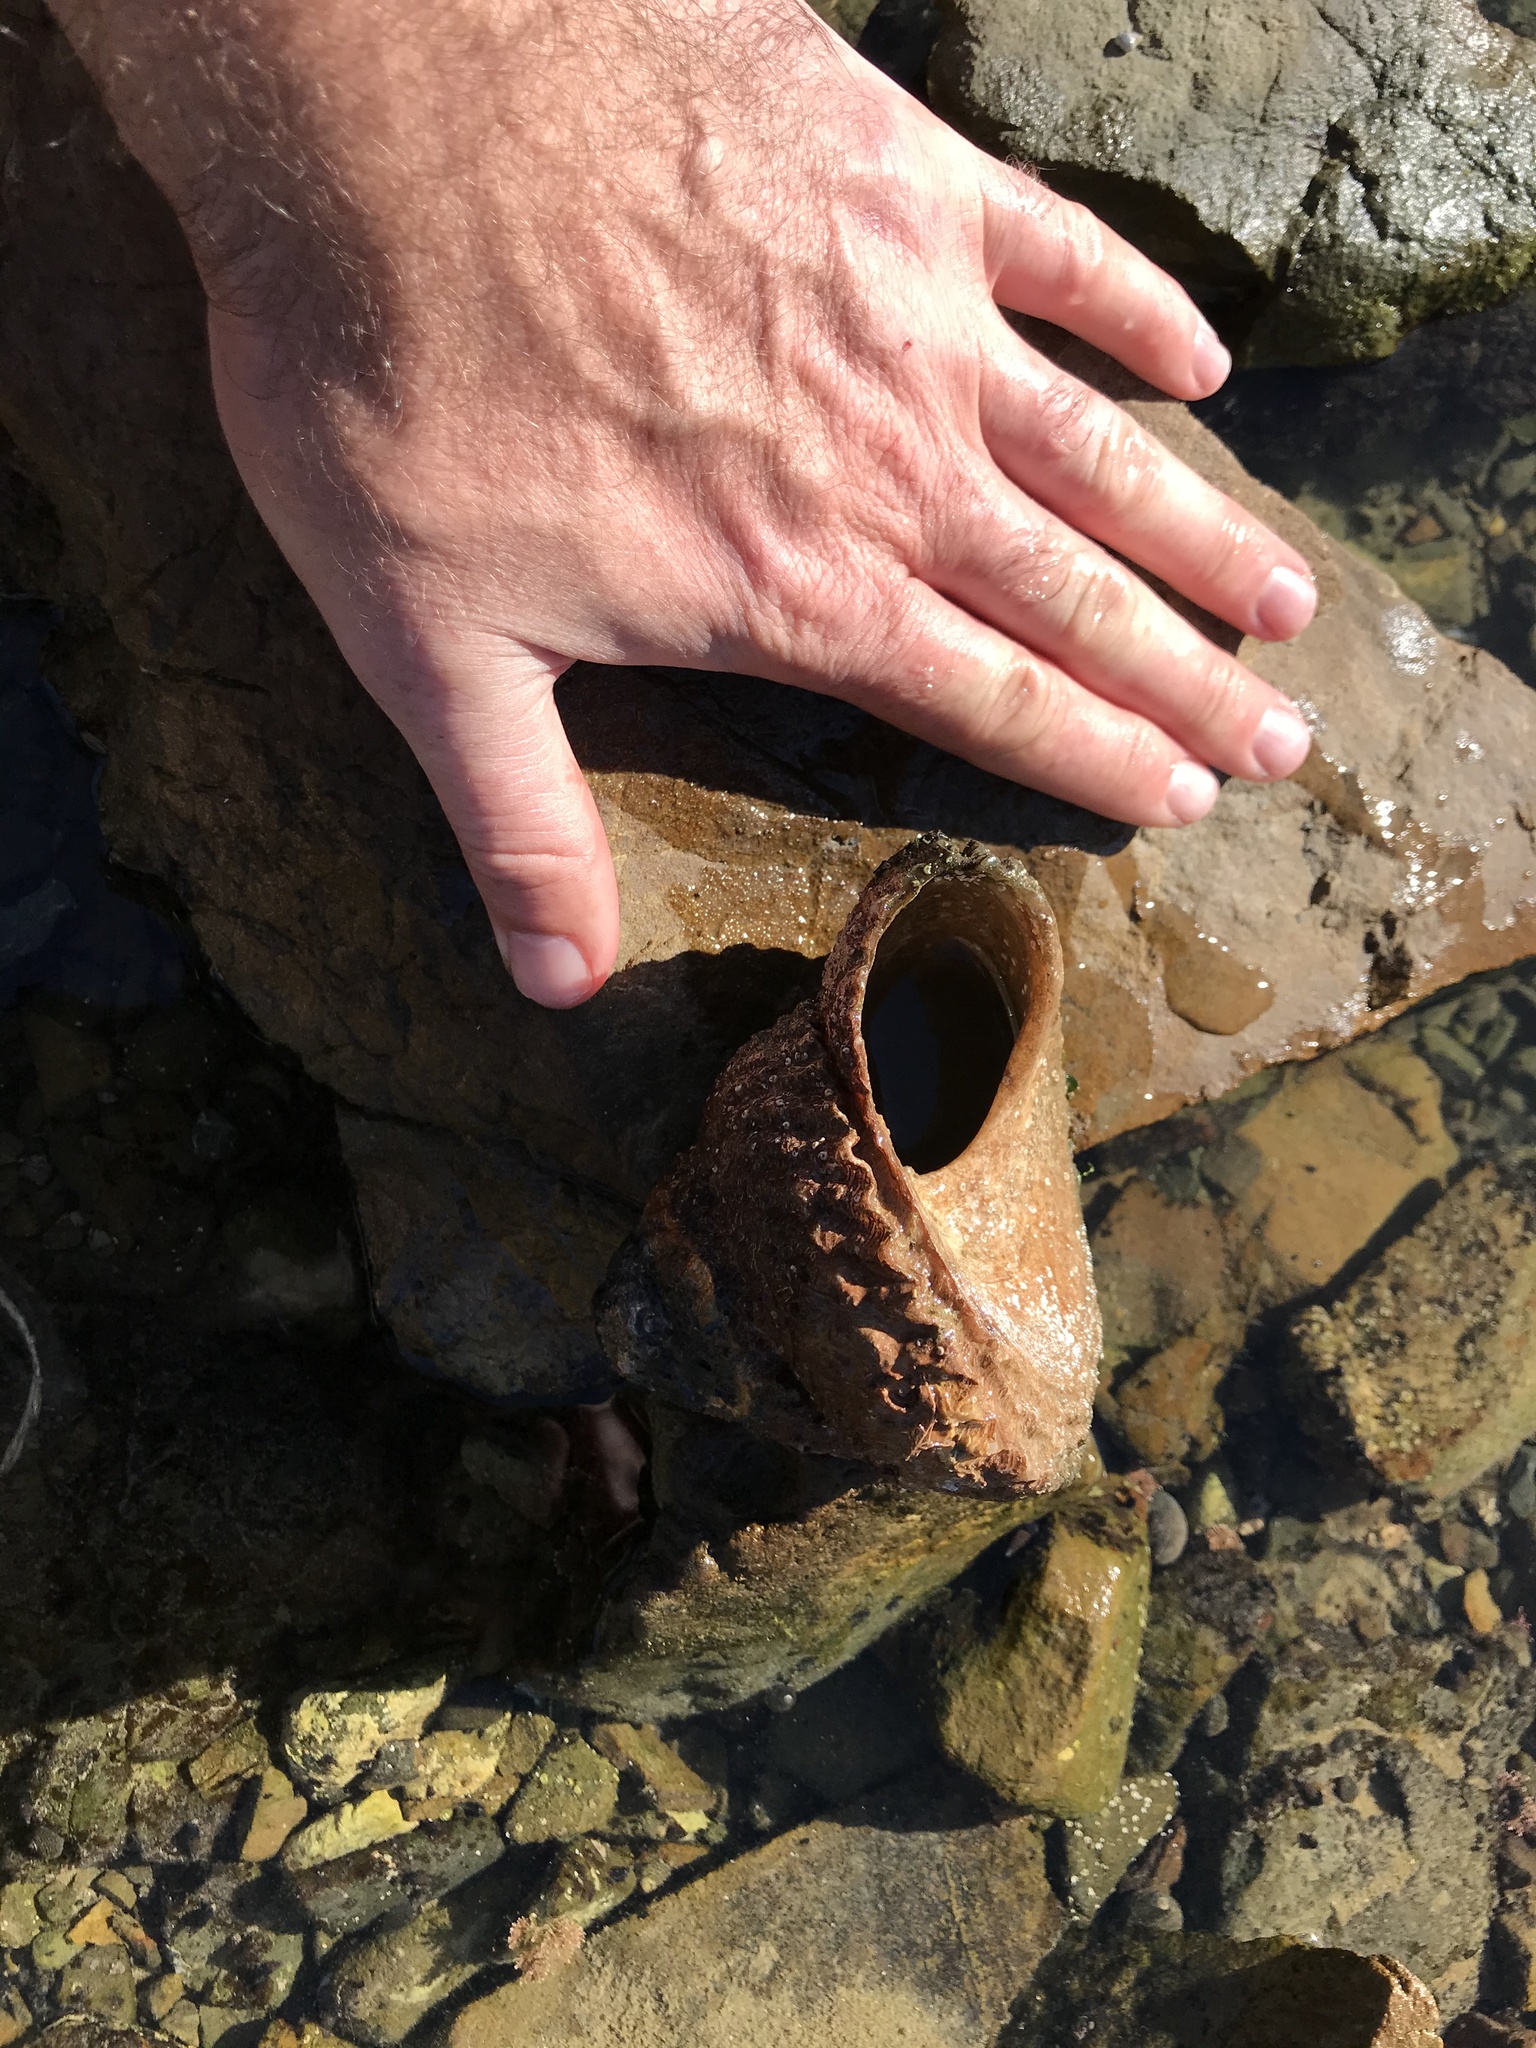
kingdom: Animalia
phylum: Mollusca
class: Gastropoda
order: Trochida
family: Turbinidae
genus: Cookia
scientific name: Cookia sulcata
